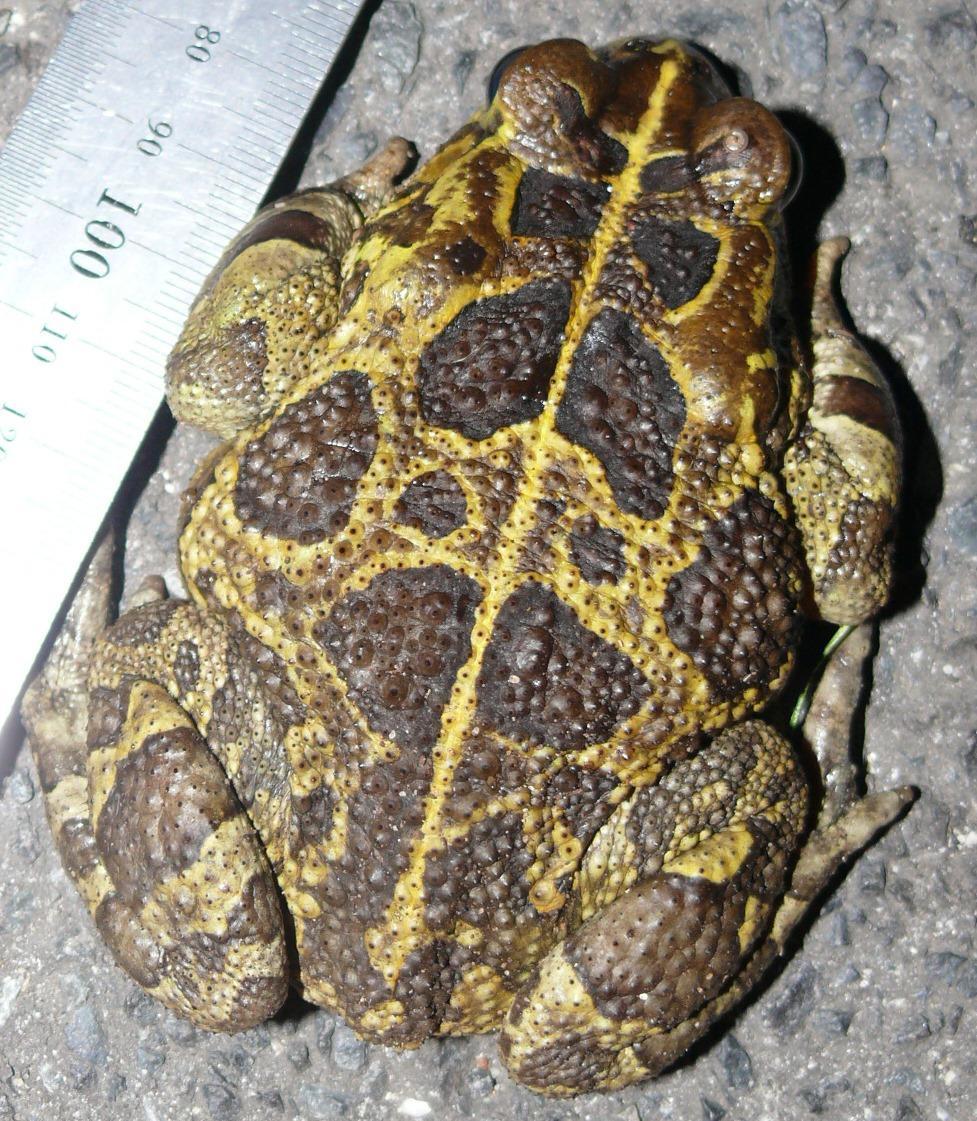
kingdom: Animalia
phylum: Chordata
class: Amphibia
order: Anura
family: Bufonidae
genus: Sclerophrys
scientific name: Sclerophrys pantherina
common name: Panther toad
